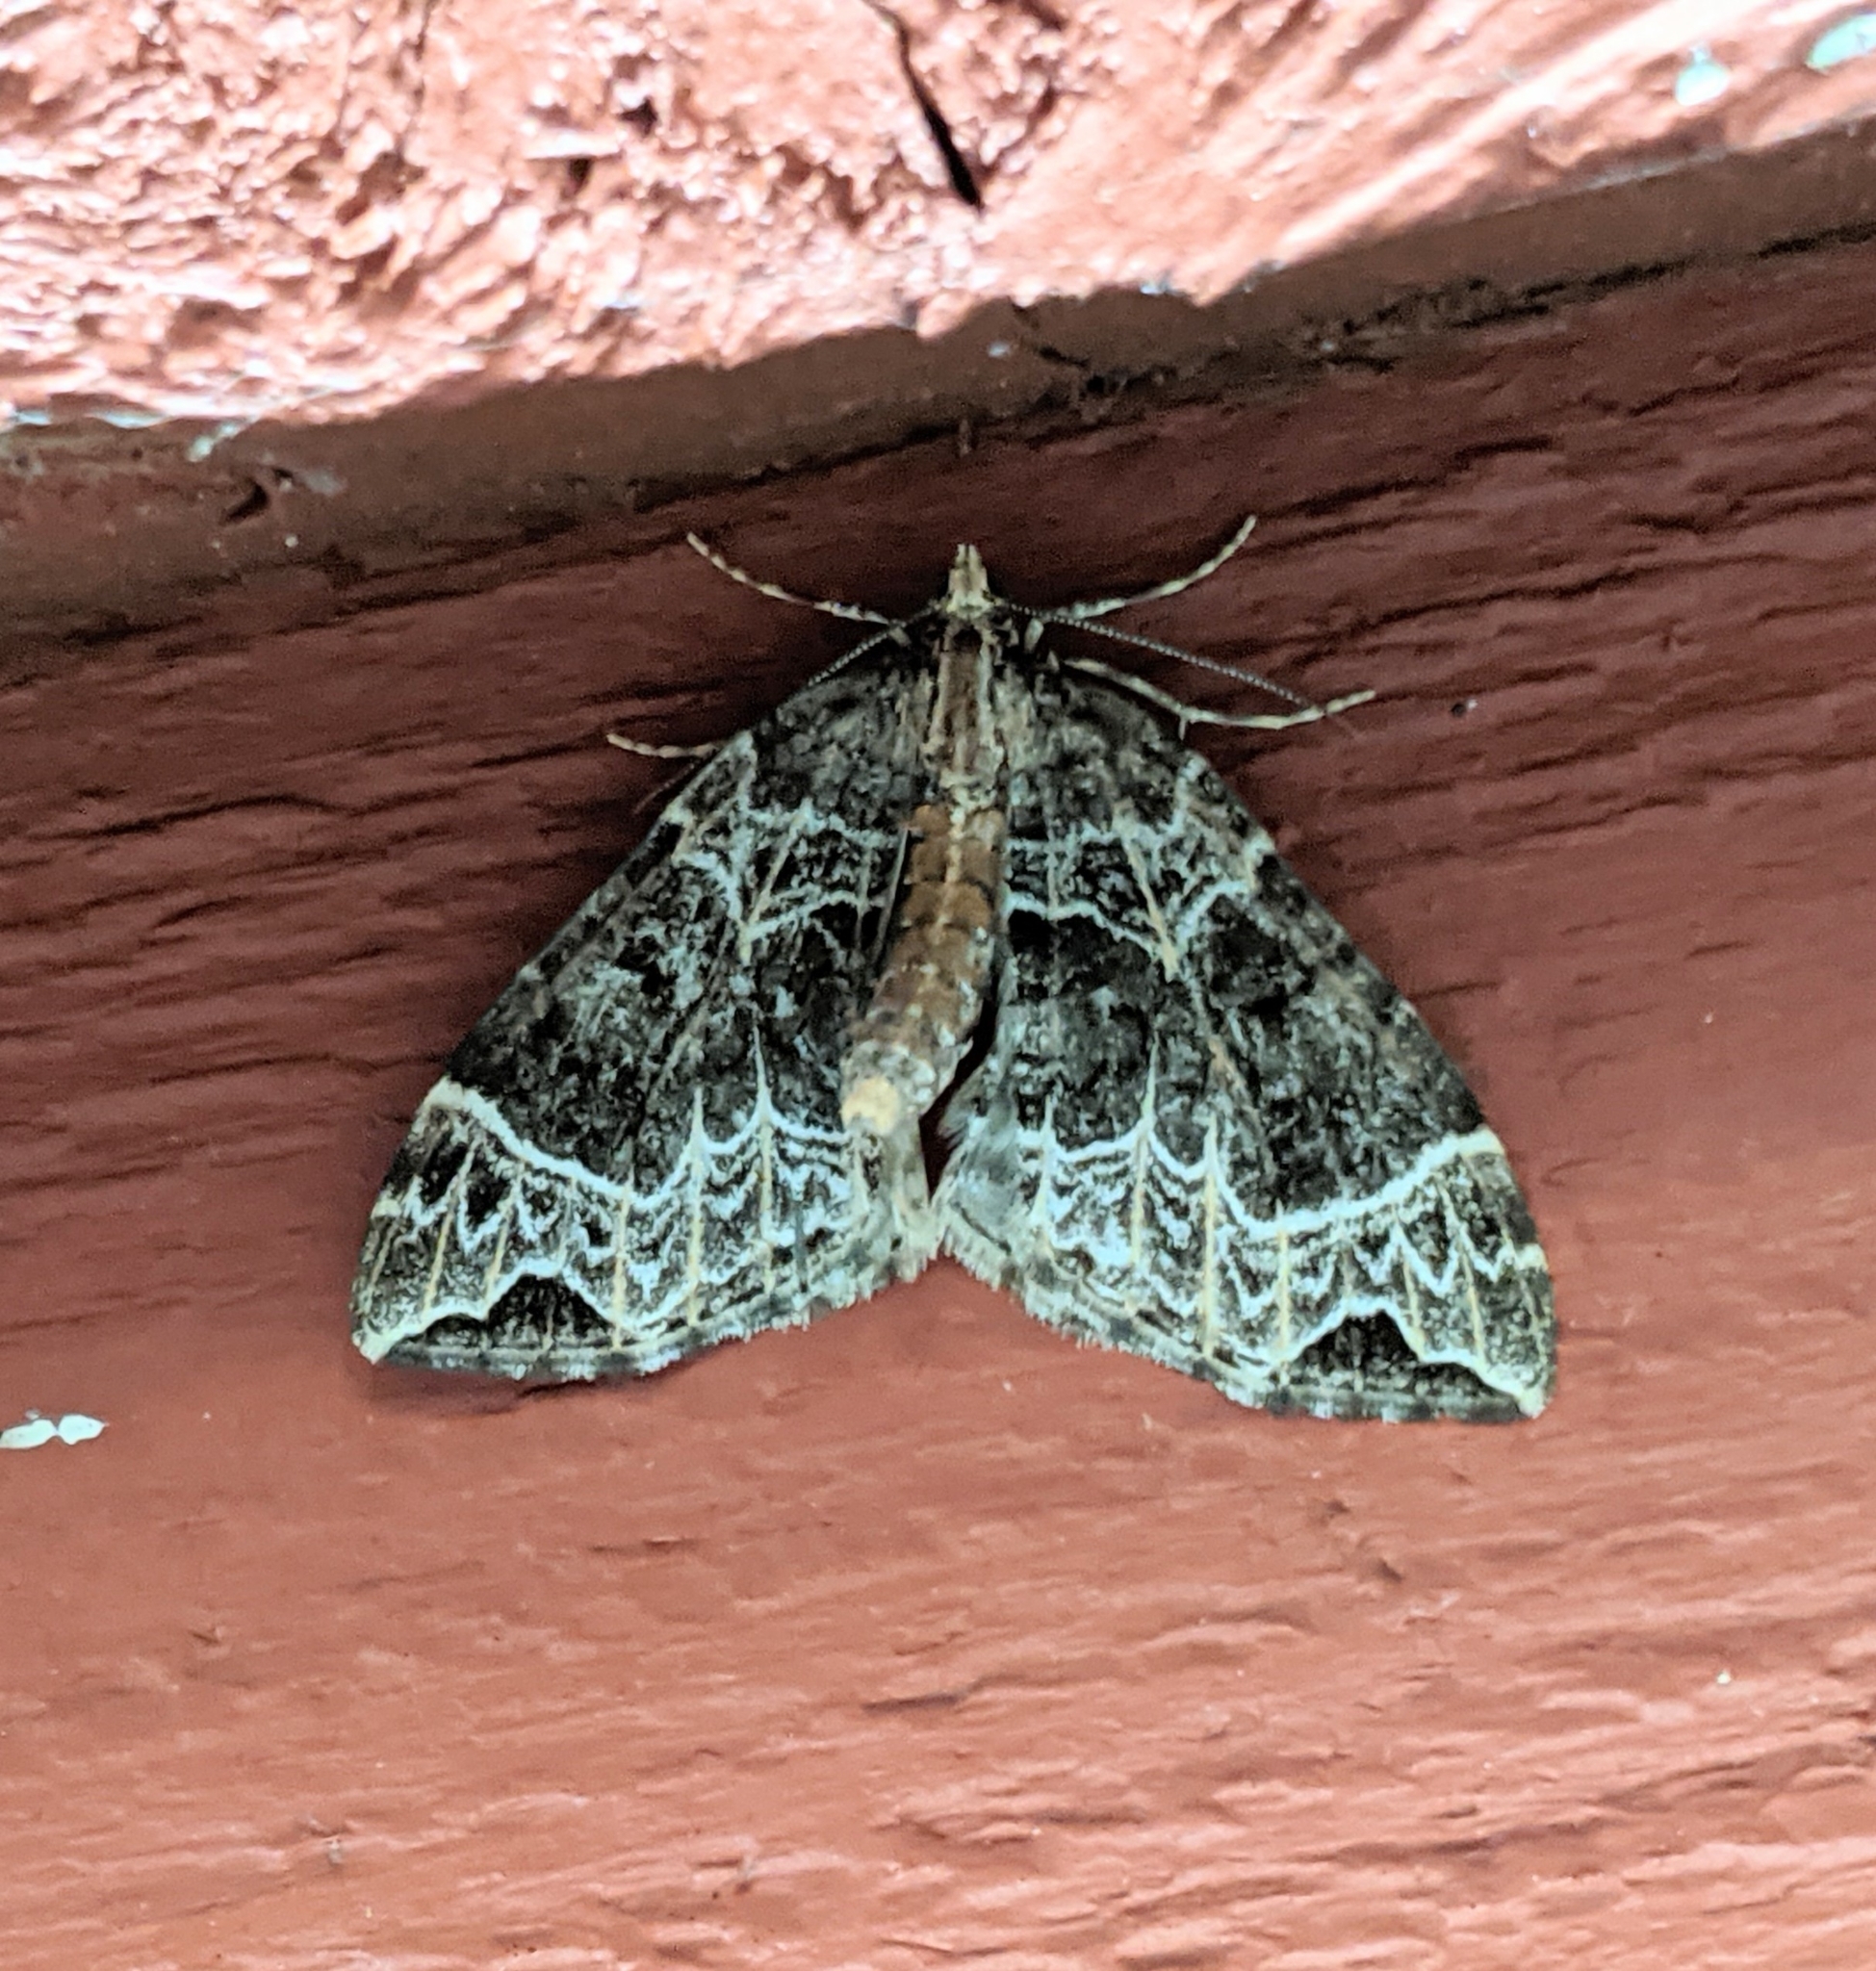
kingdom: Animalia
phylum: Arthropoda
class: Insecta
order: Lepidoptera
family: Geometridae
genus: Ecliptopera
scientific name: Ecliptopera silaceata
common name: Small phoenix
